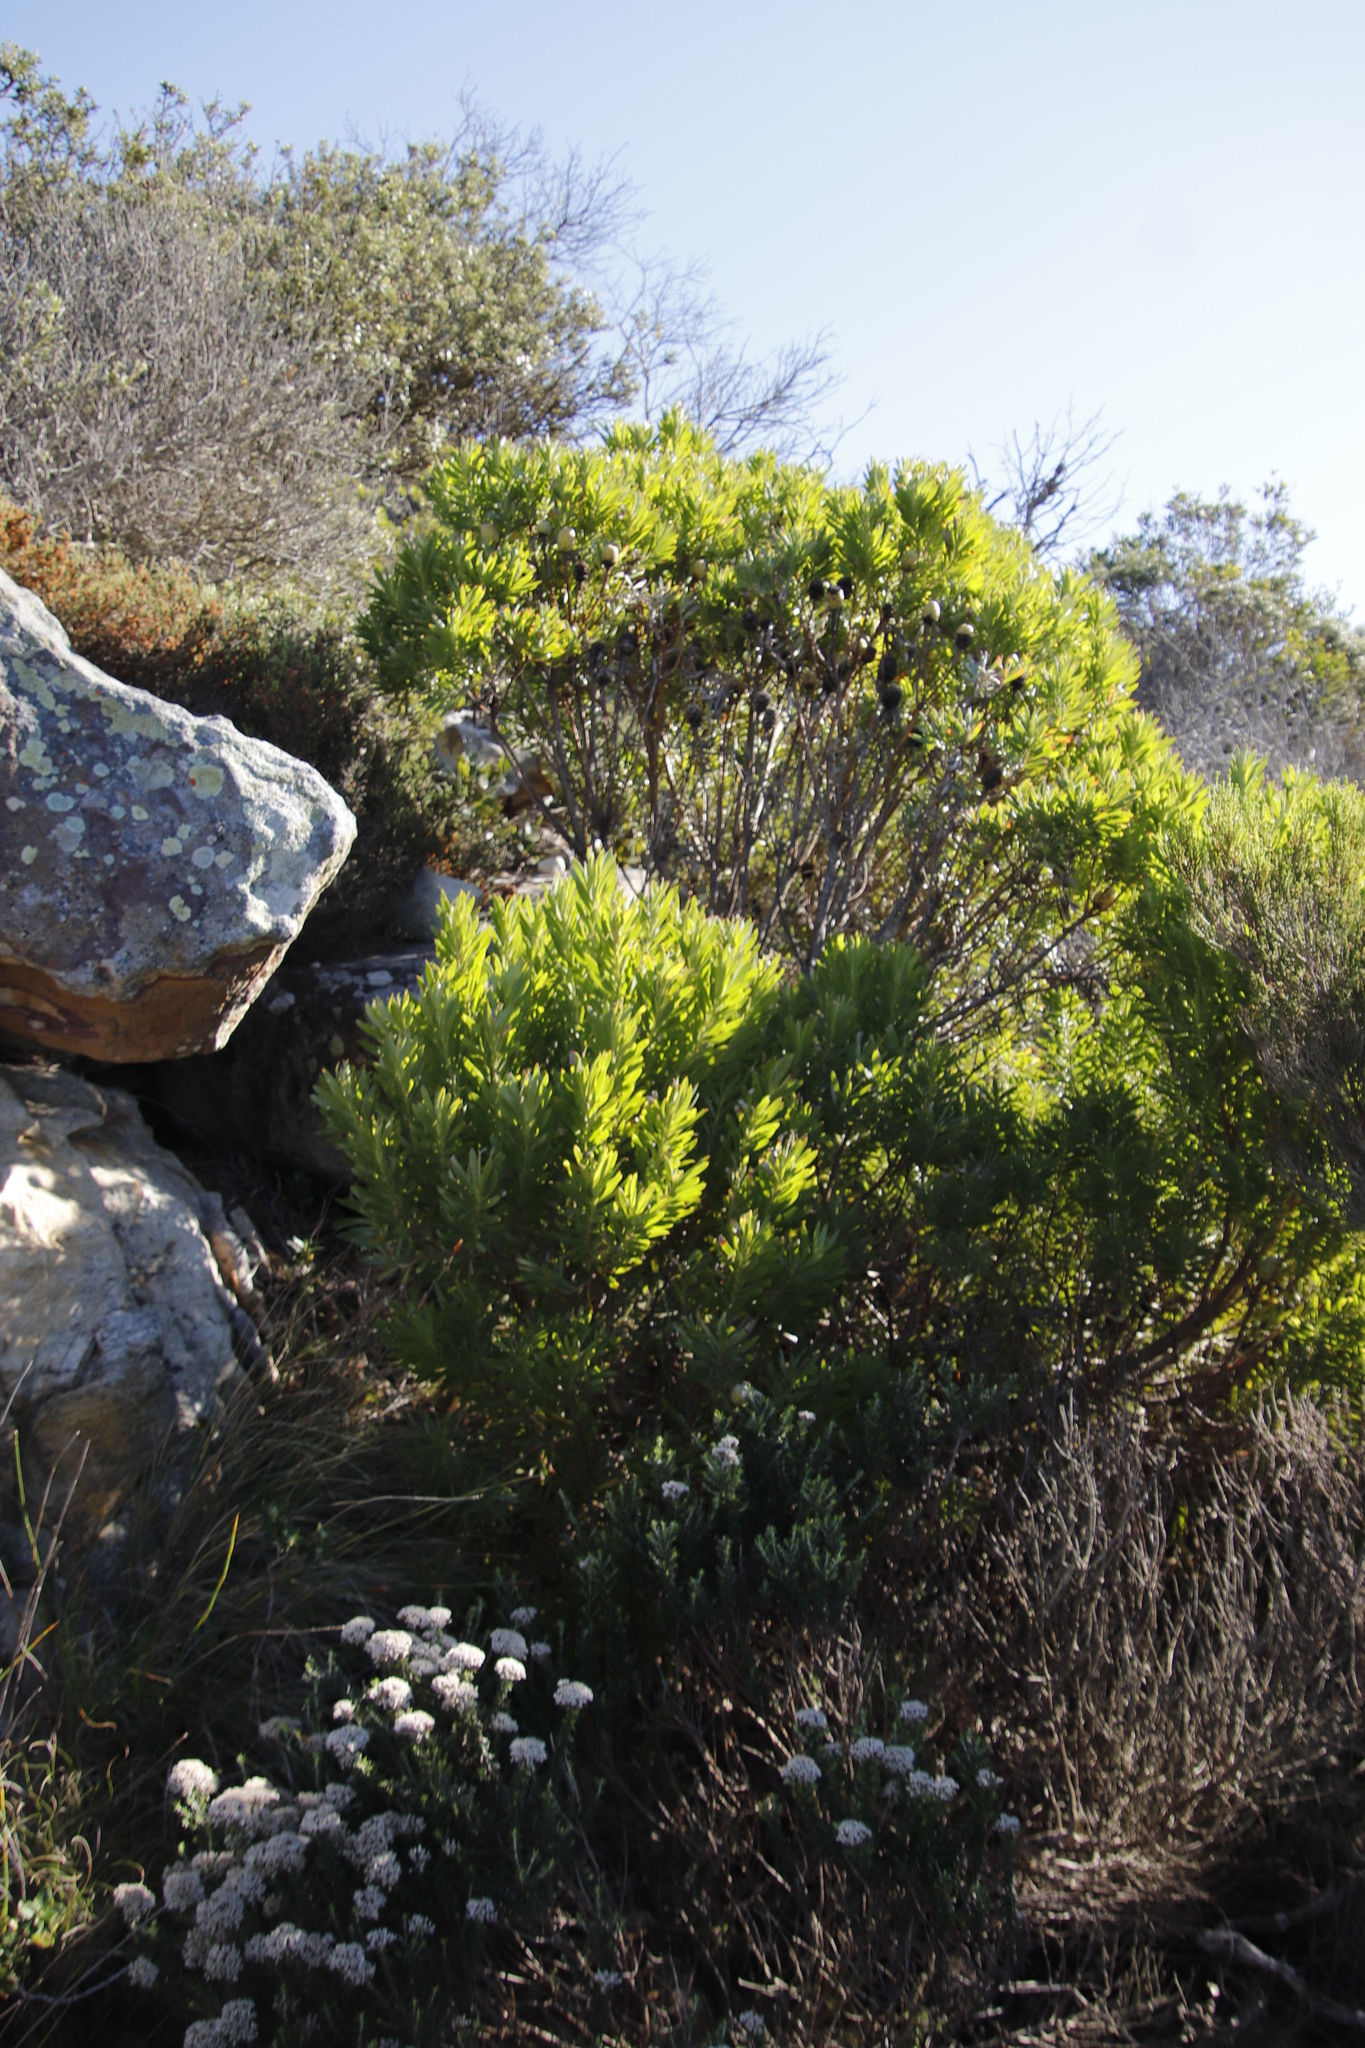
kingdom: Plantae
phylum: Tracheophyta
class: Magnoliopsida
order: Proteales
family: Proteaceae
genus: Leucadendron
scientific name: Leucadendron coniferum
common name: Dune conebush
